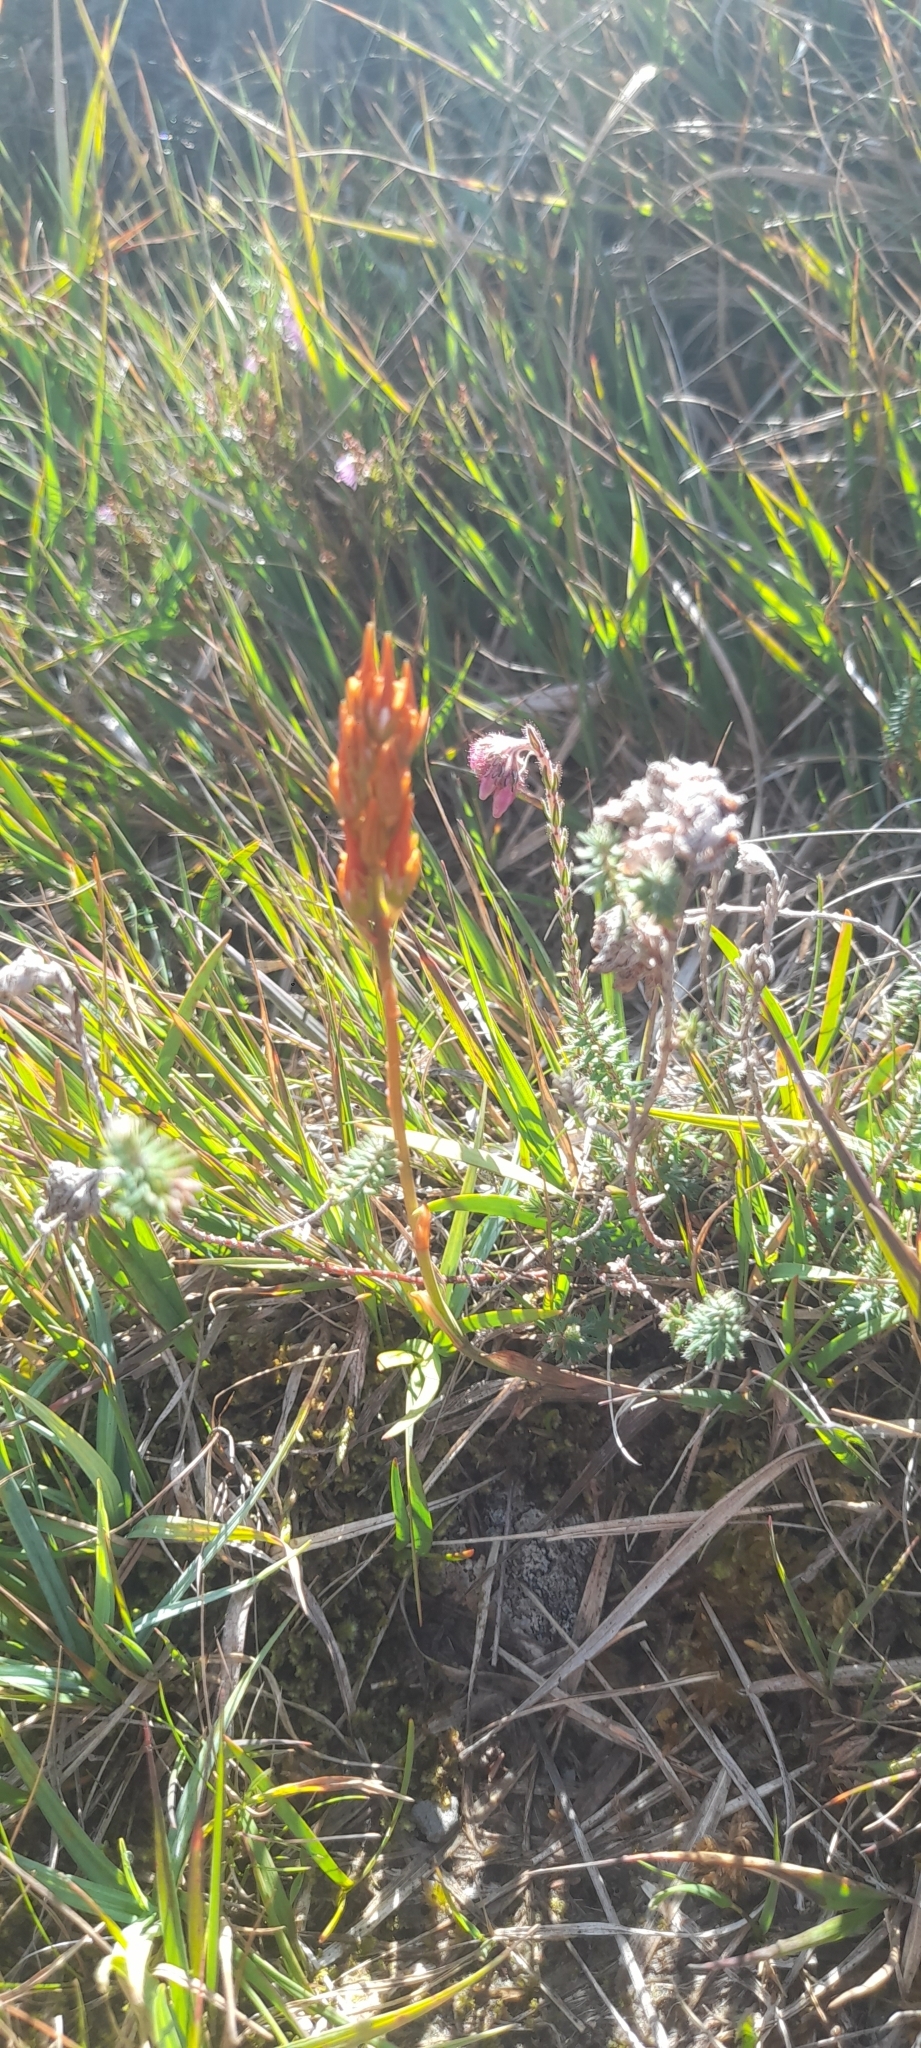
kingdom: Plantae
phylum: Tracheophyta
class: Liliopsida
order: Dioscoreales
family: Nartheciaceae
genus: Narthecium
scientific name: Narthecium ossifragum
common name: Bog asphodel
